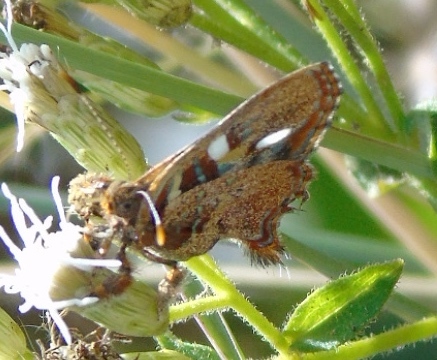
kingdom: Animalia
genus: Anteros
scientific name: Anteros carausius
